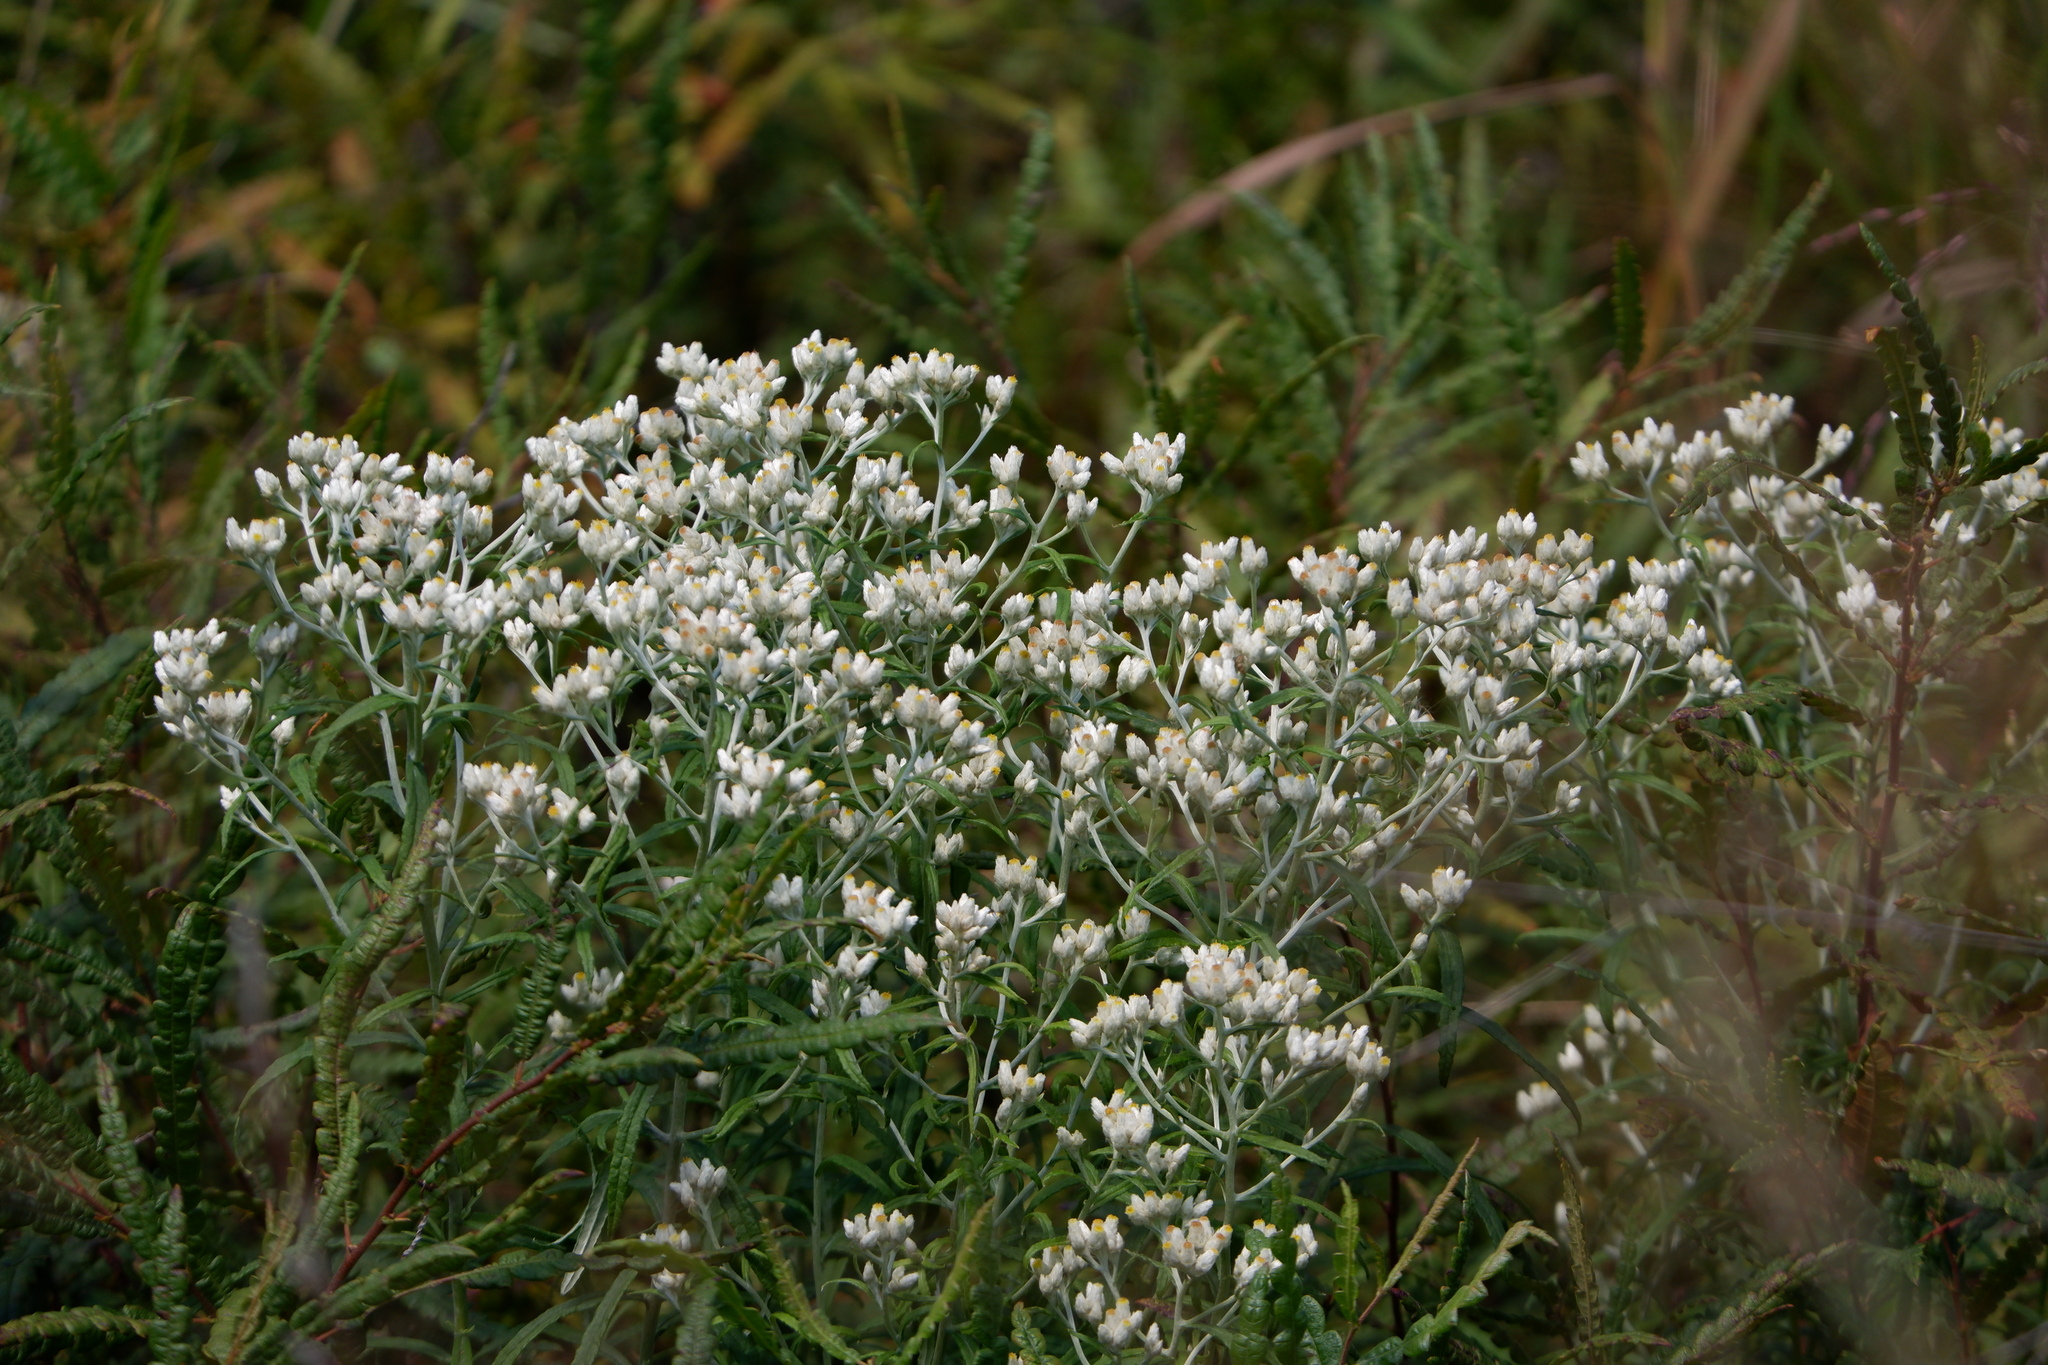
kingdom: Plantae
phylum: Tracheophyta
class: Magnoliopsida
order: Asterales
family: Asteraceae
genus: Pseudognaphalium
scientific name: Pseudognaphalium obtusifolium
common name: Eastern rabbit-tobacco
